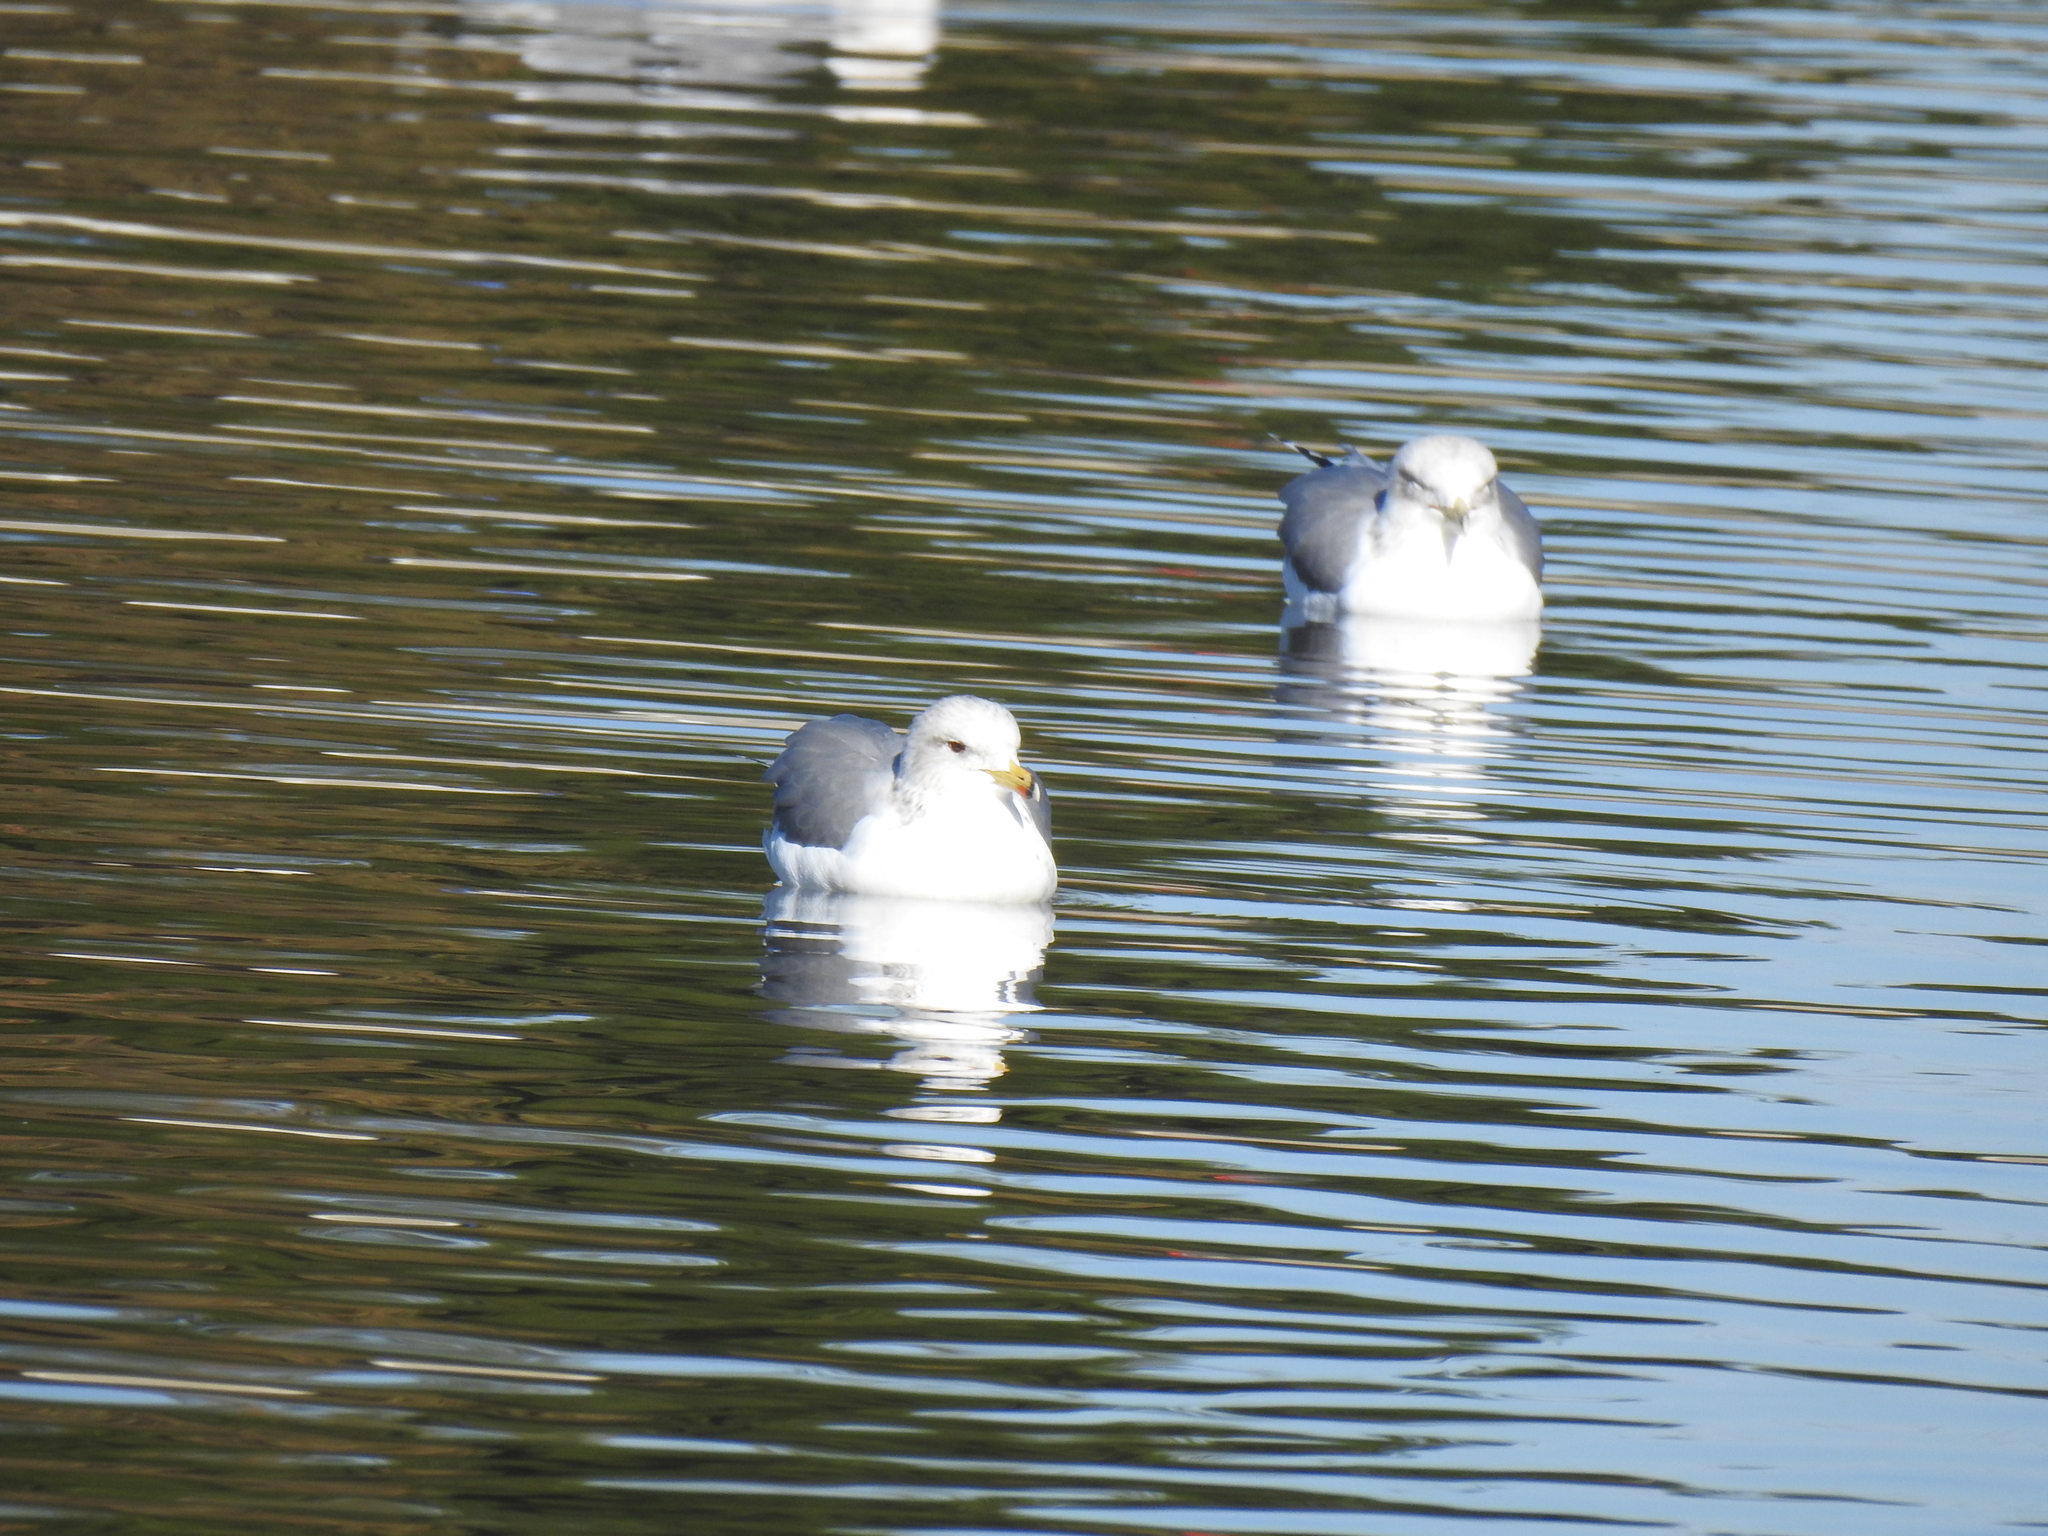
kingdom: Animalia
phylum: Chordata
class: Aves
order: Charadriiformes
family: Laridae
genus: Larus
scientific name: Larus californicus
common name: California gull
